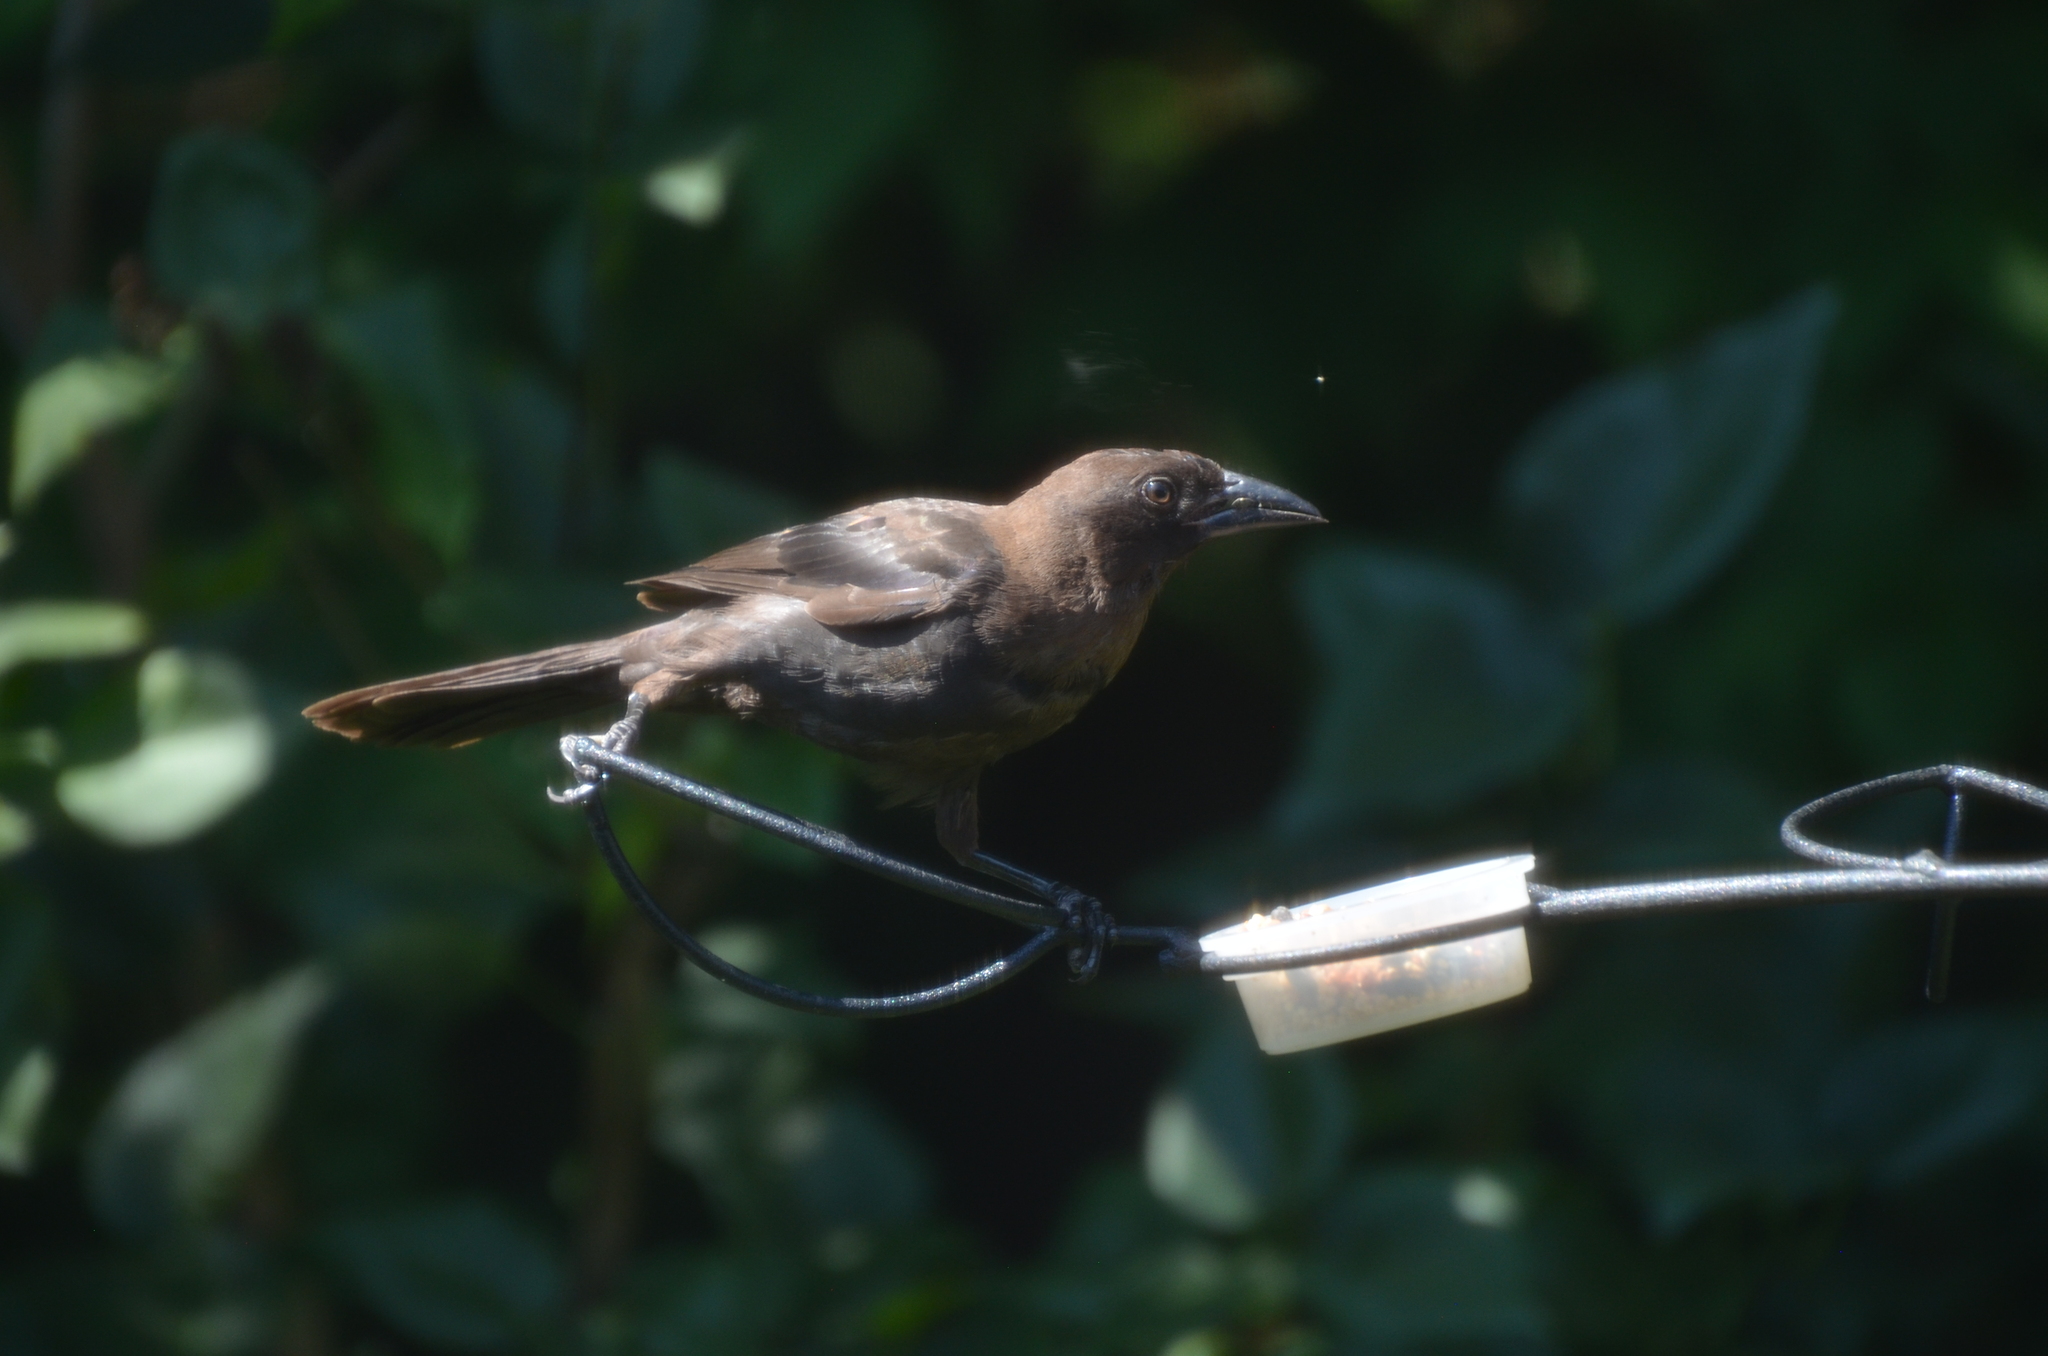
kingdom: Animalia
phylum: Chordata
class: Aves
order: Passeriformes
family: Icteridae
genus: Molothrus
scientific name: Molothrus ater
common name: Brown-headed cowbird
